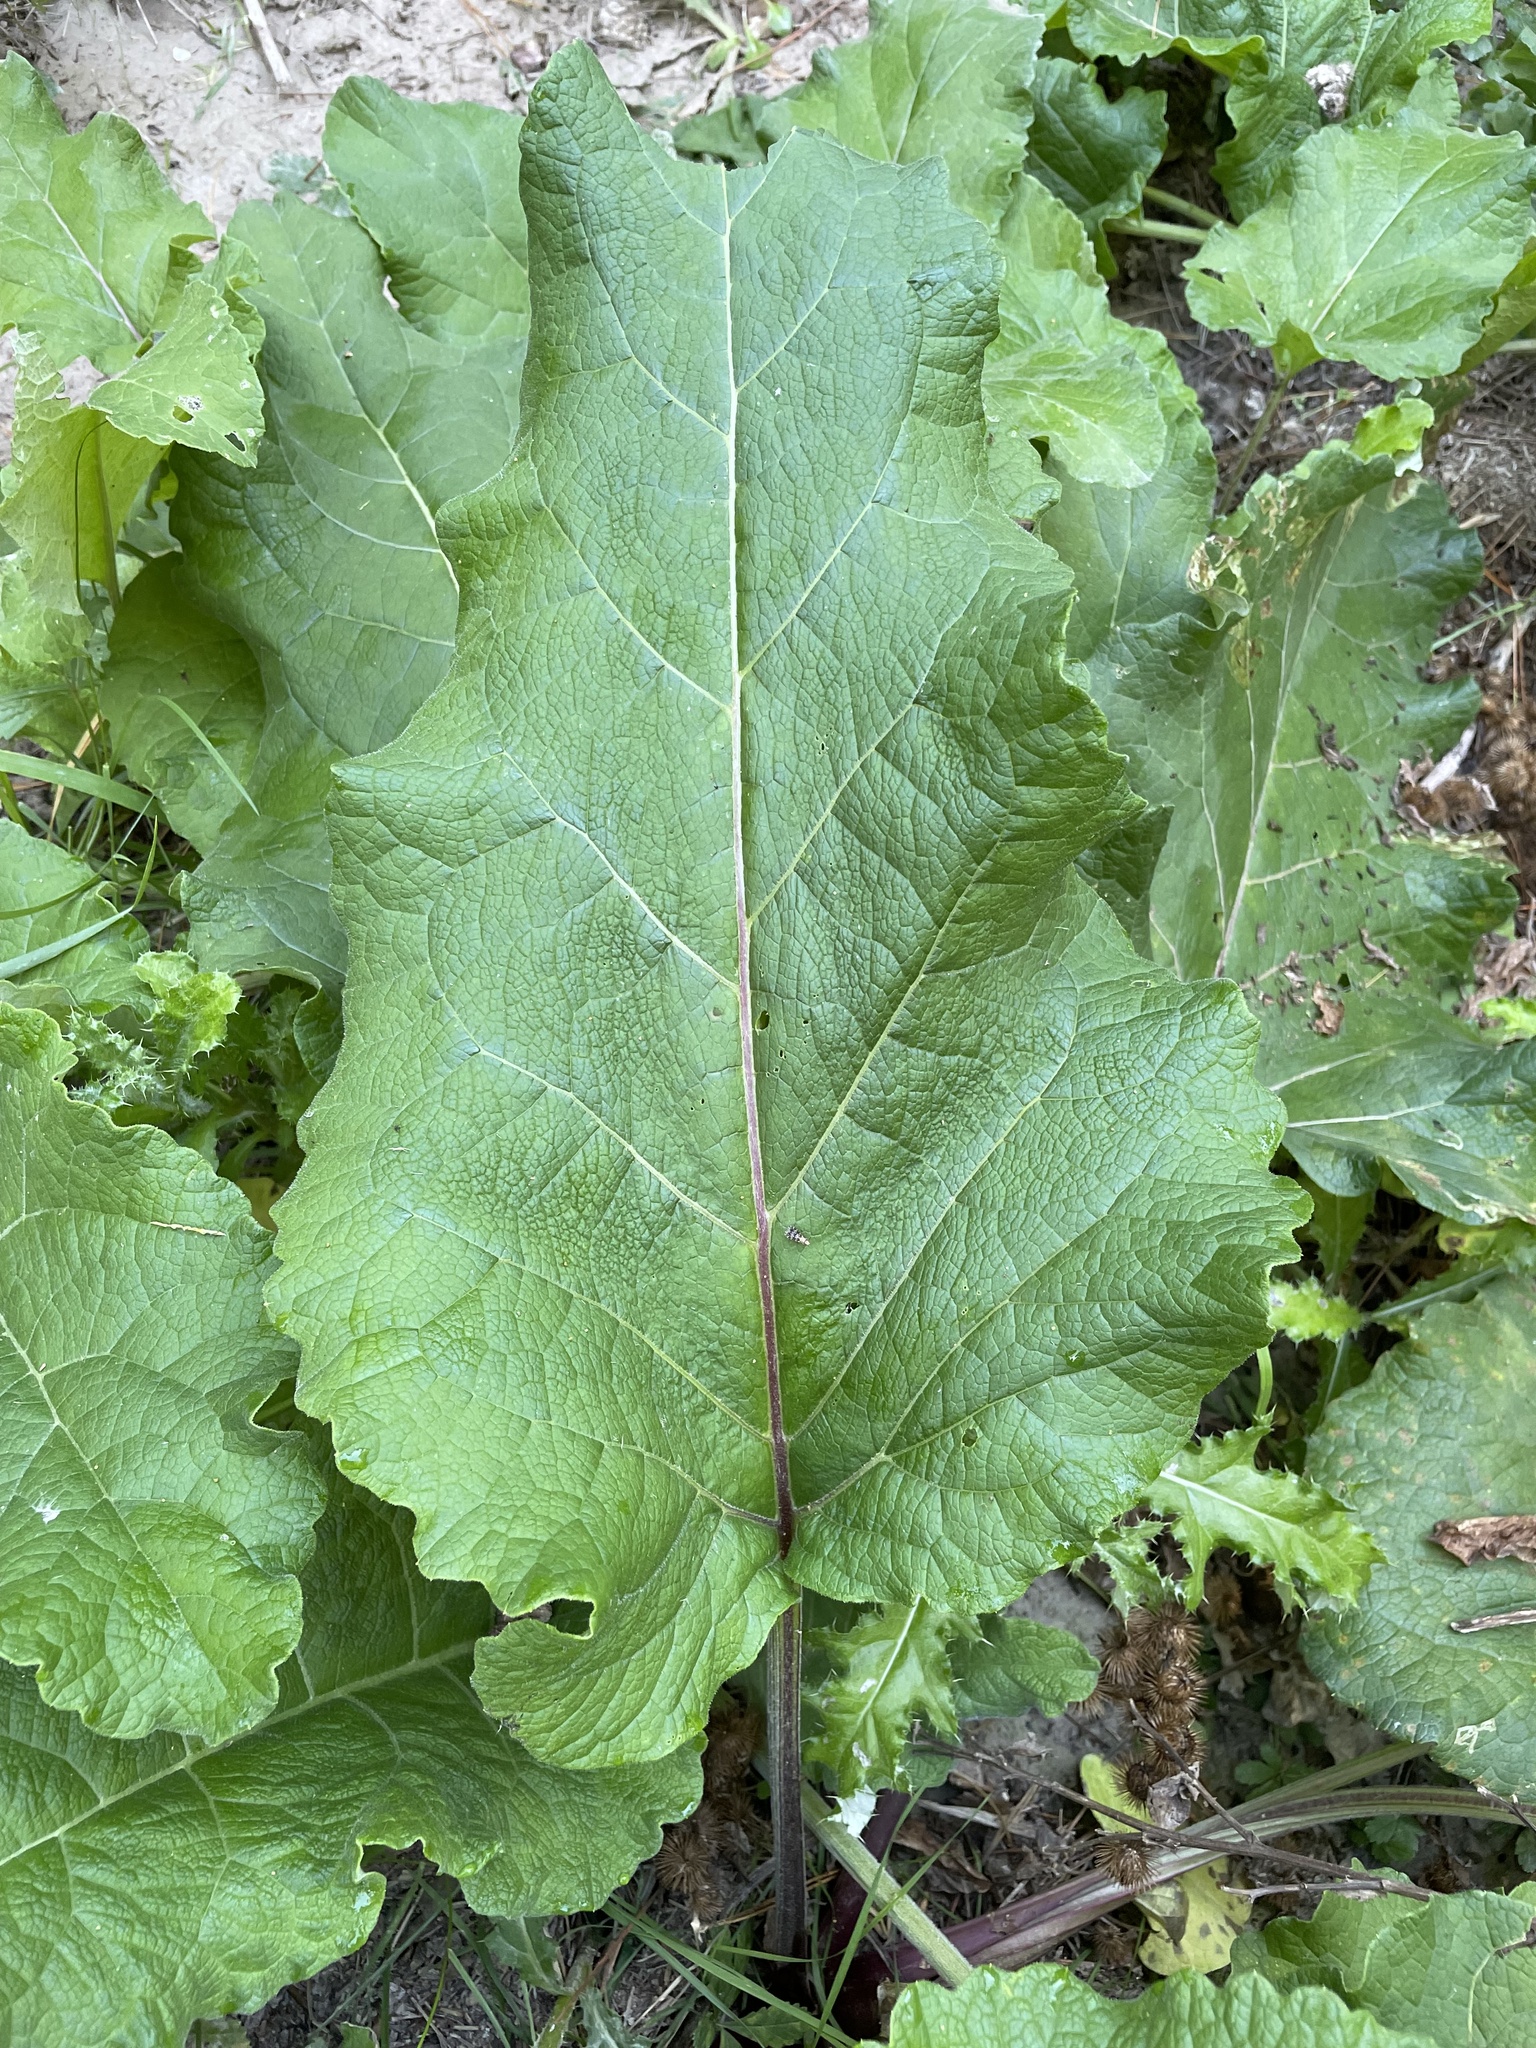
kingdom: Plantae
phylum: Tracheophyta
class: Magnoliopsida
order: Asterales
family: Asteraceae
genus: Arctium
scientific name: Arctium minus
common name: Lesser burdock
